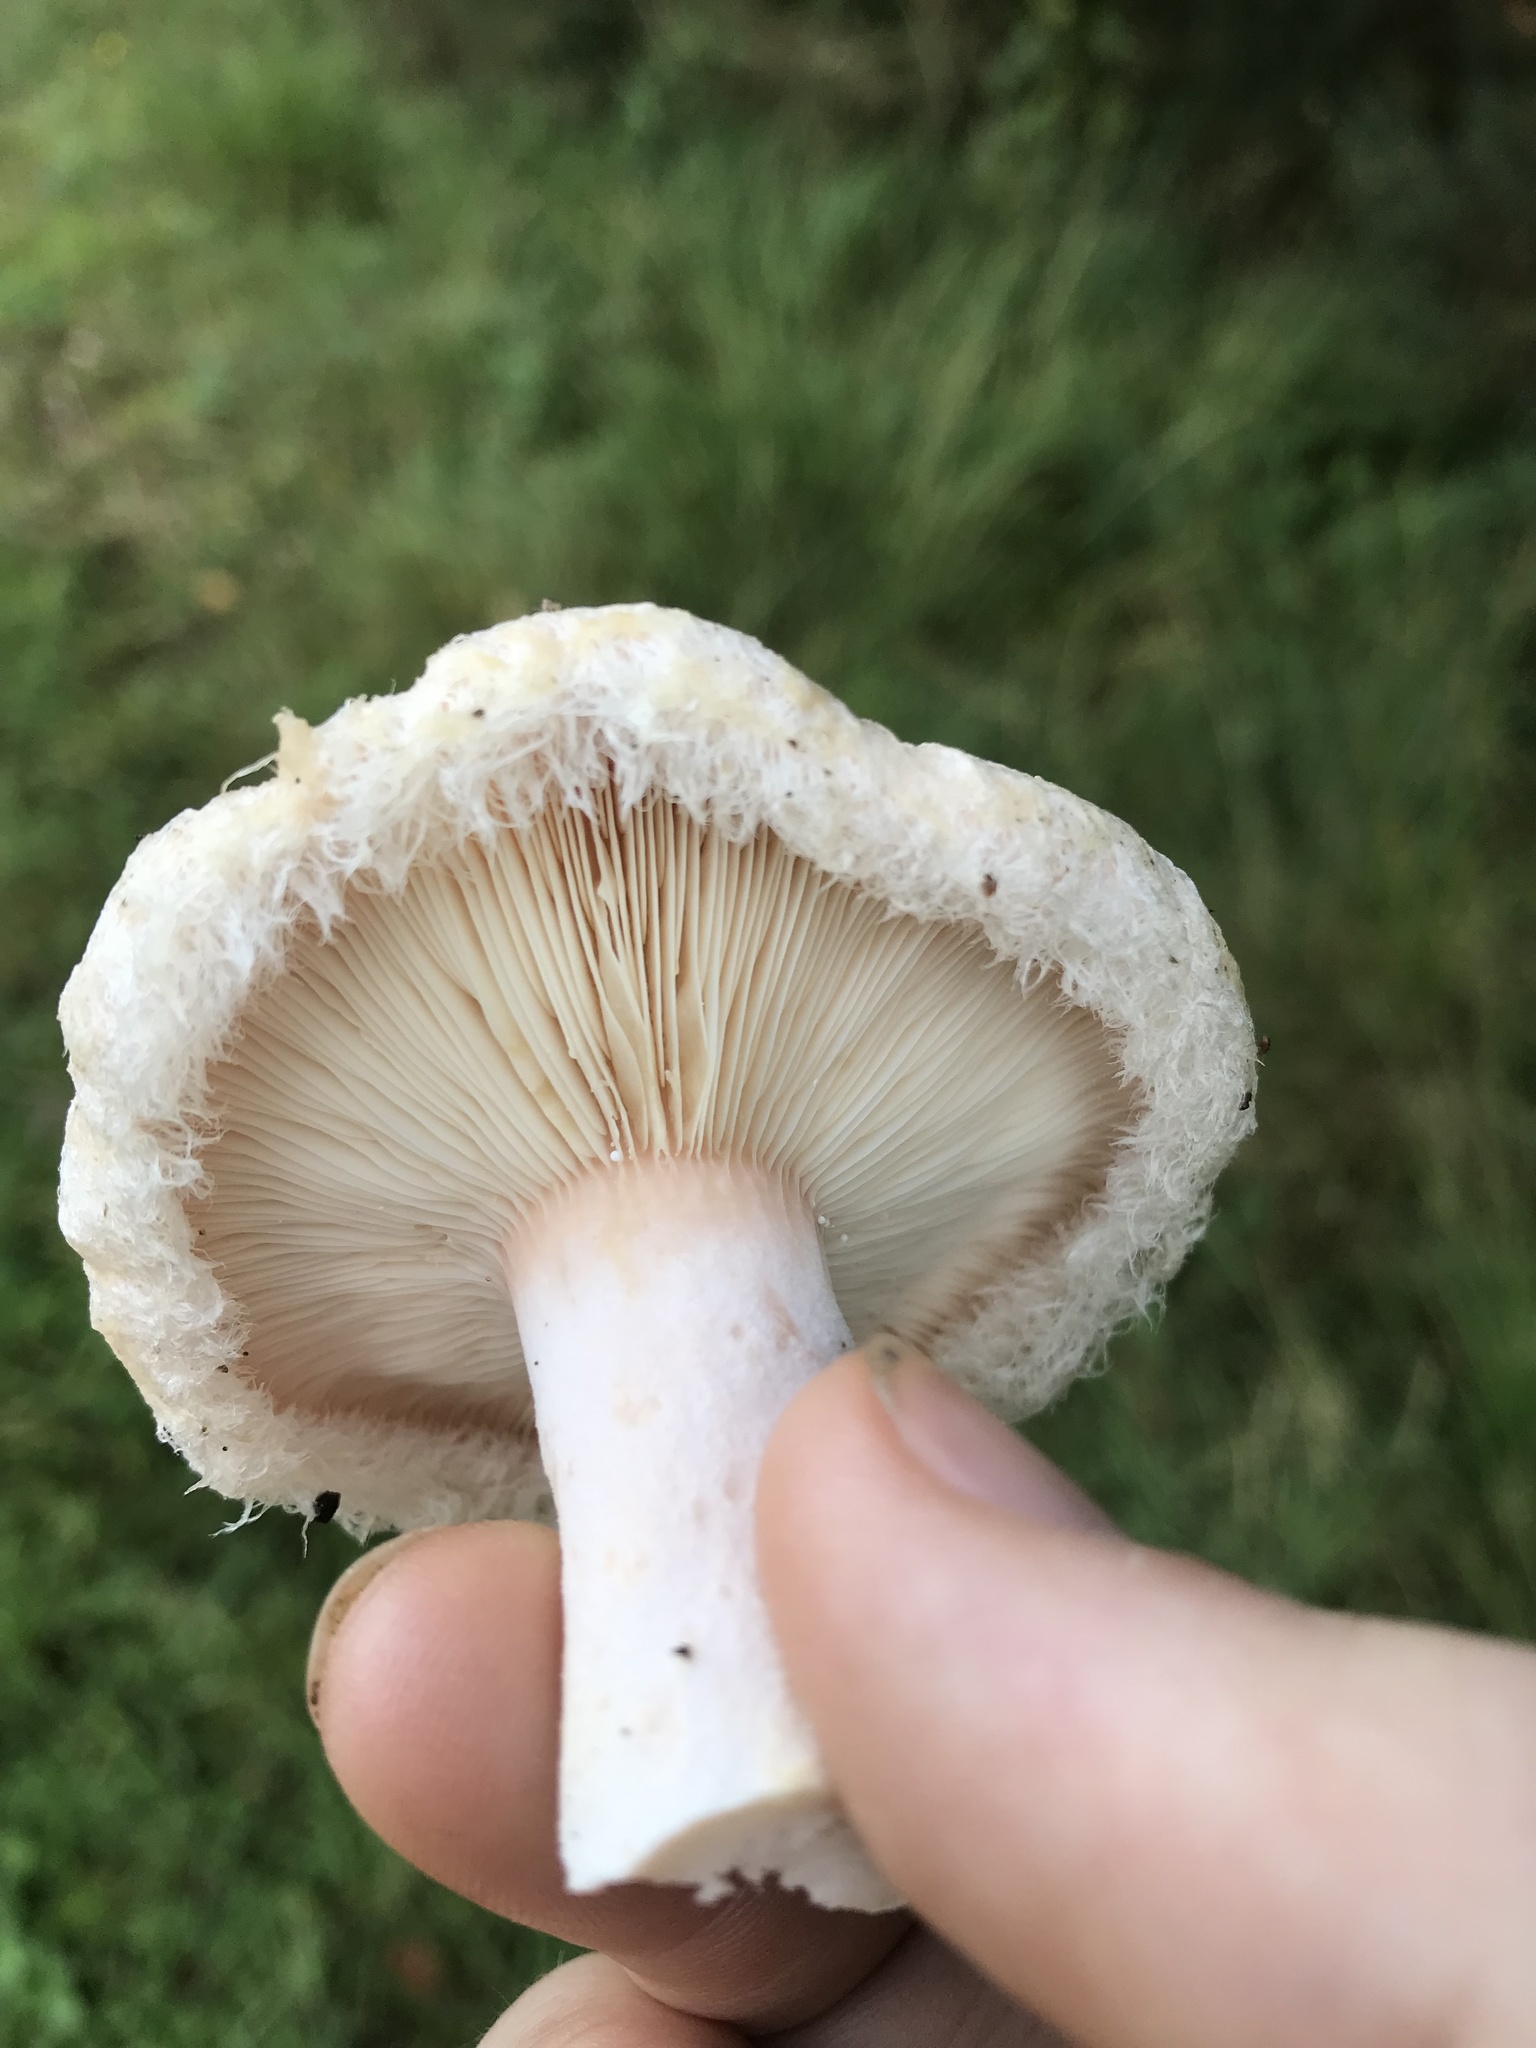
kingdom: Fungi
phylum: Basidiomycota
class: Agaricomycetes
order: Russulales
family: Russulaceae
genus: Lactarius
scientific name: Lactarius pubescens
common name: Bearded milkcap
